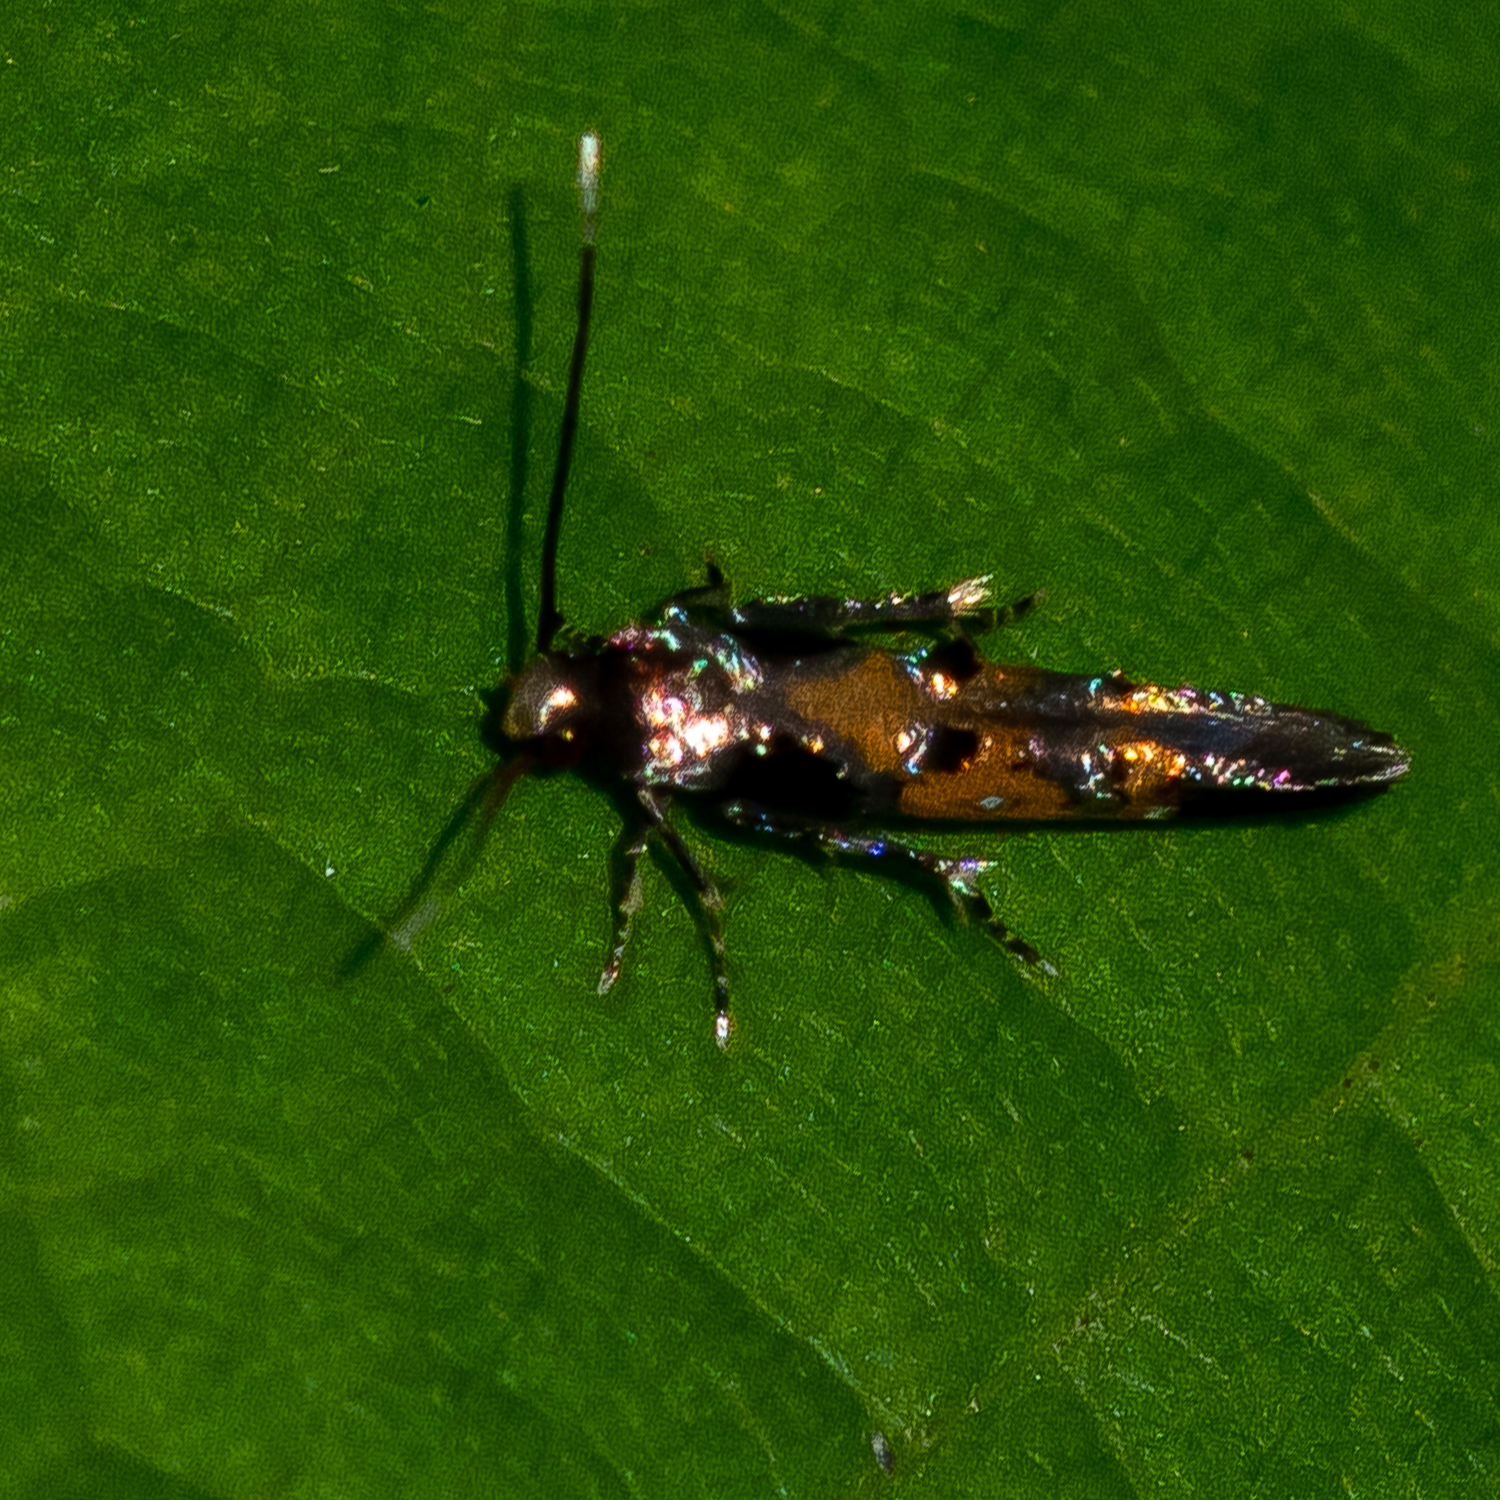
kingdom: Animalia
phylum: Arthropoda
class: Insecta
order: Lepidoptera
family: Elachistidae
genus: Chrysoclista
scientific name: Chrysoclista linneela
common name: Lime cosmet
